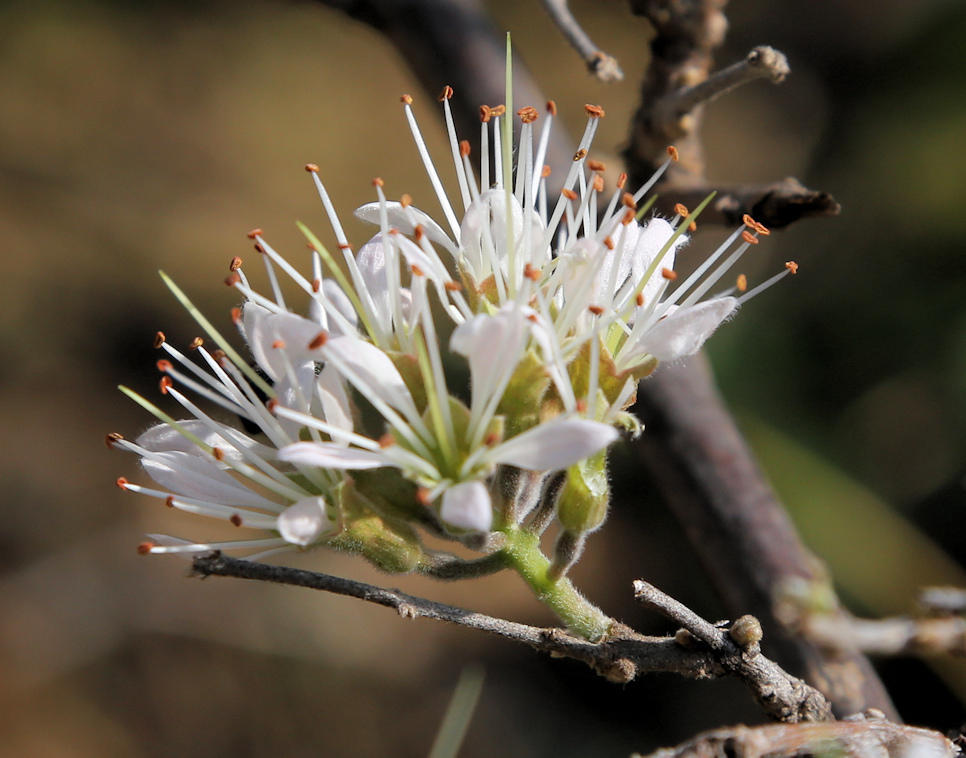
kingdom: Plantae
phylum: Tracheophyta
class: Magnoliopsida
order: Myrtales
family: Combretaceae
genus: Combretum
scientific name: Combretum mossambicense
